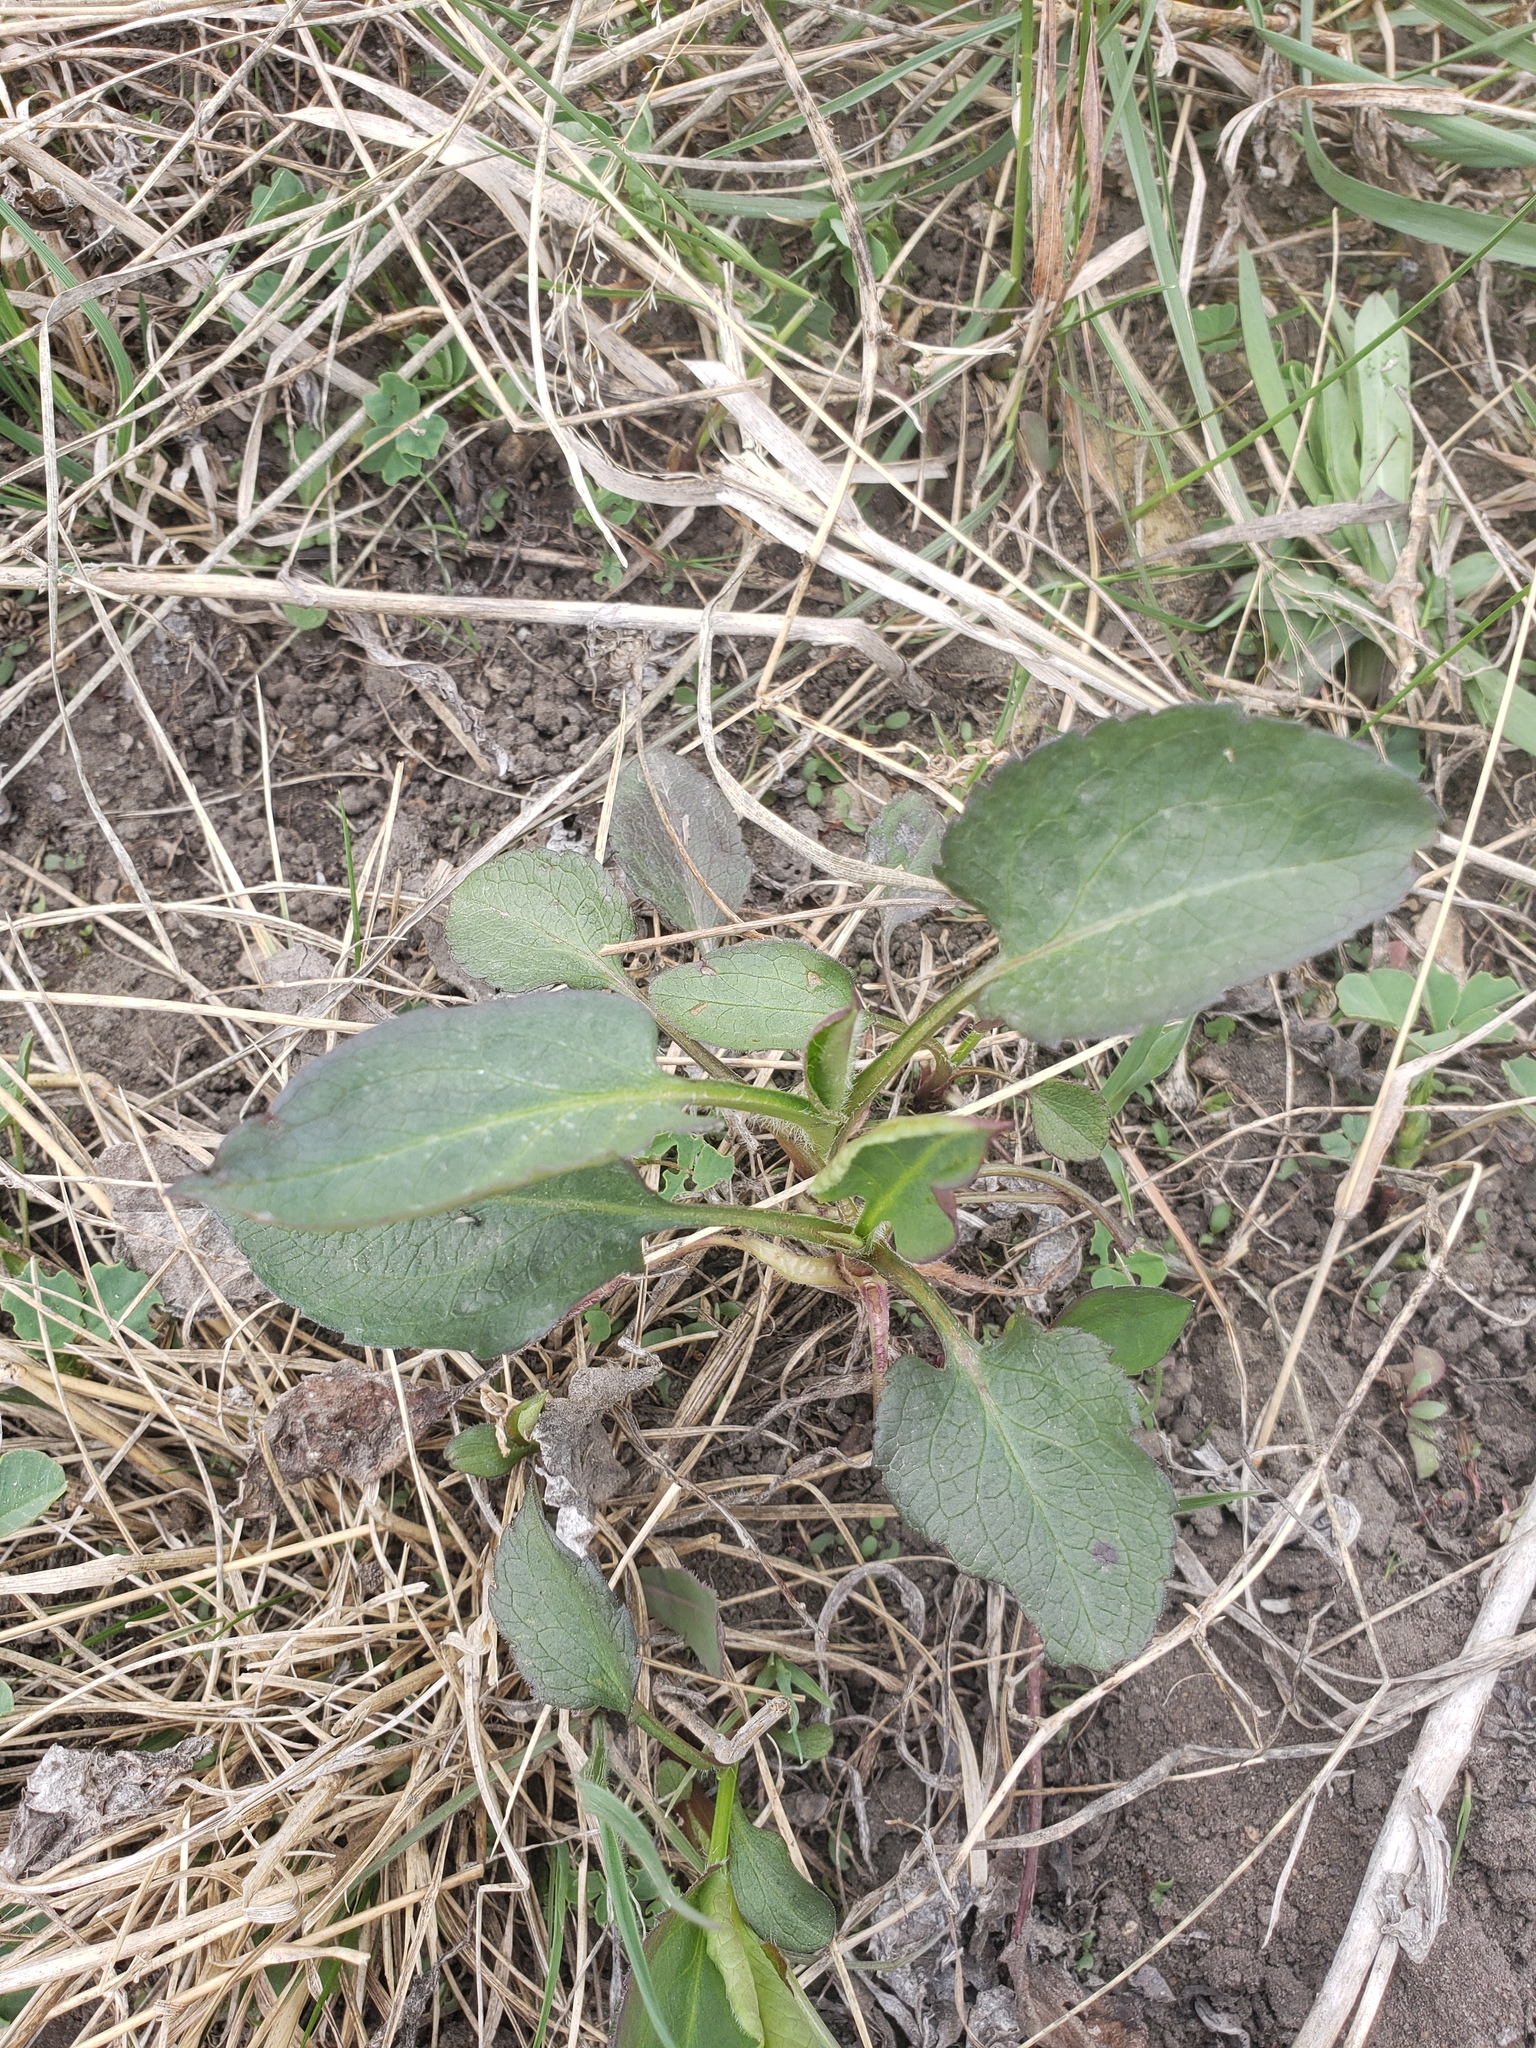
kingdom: Plantae
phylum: Tracheophyta
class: Magnoliopsida
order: Asterales
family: Asteraceae
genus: Symphyotrichum
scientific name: Symphyotrichum ciliolatum
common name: Fringed blue aster
